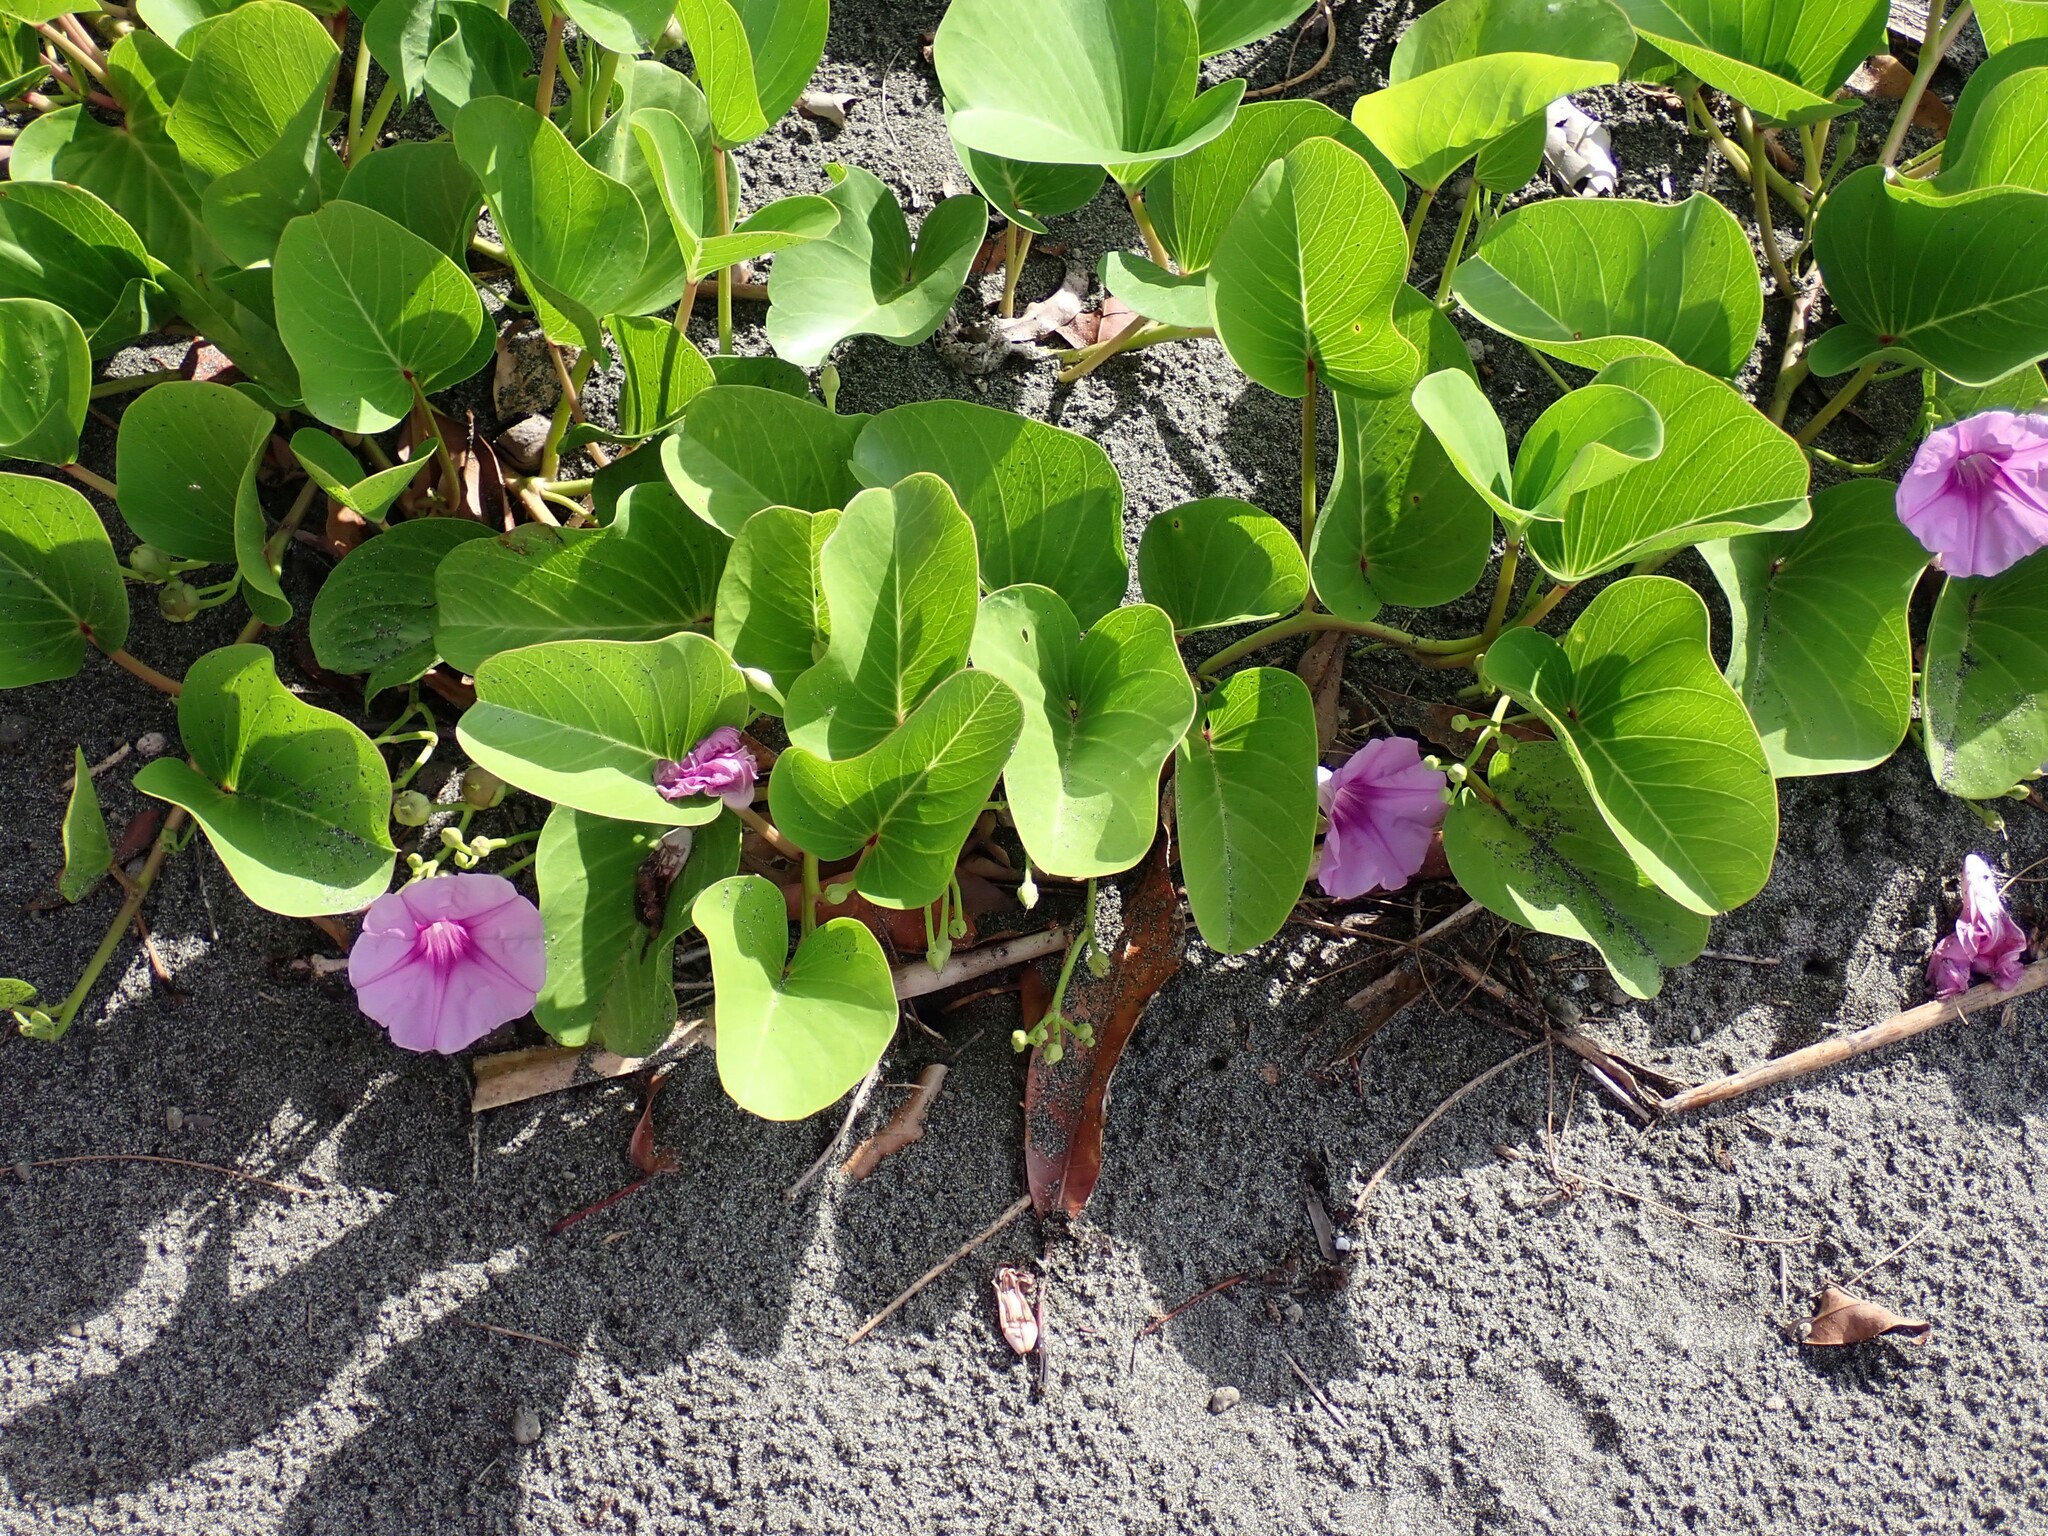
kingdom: Plantae
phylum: Tracheophyta
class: Magnoliopsida
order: Solanales
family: Convolvulaceae
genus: Ipomoea
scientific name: Ipomoea pes-caprae
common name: Beach morning glory
